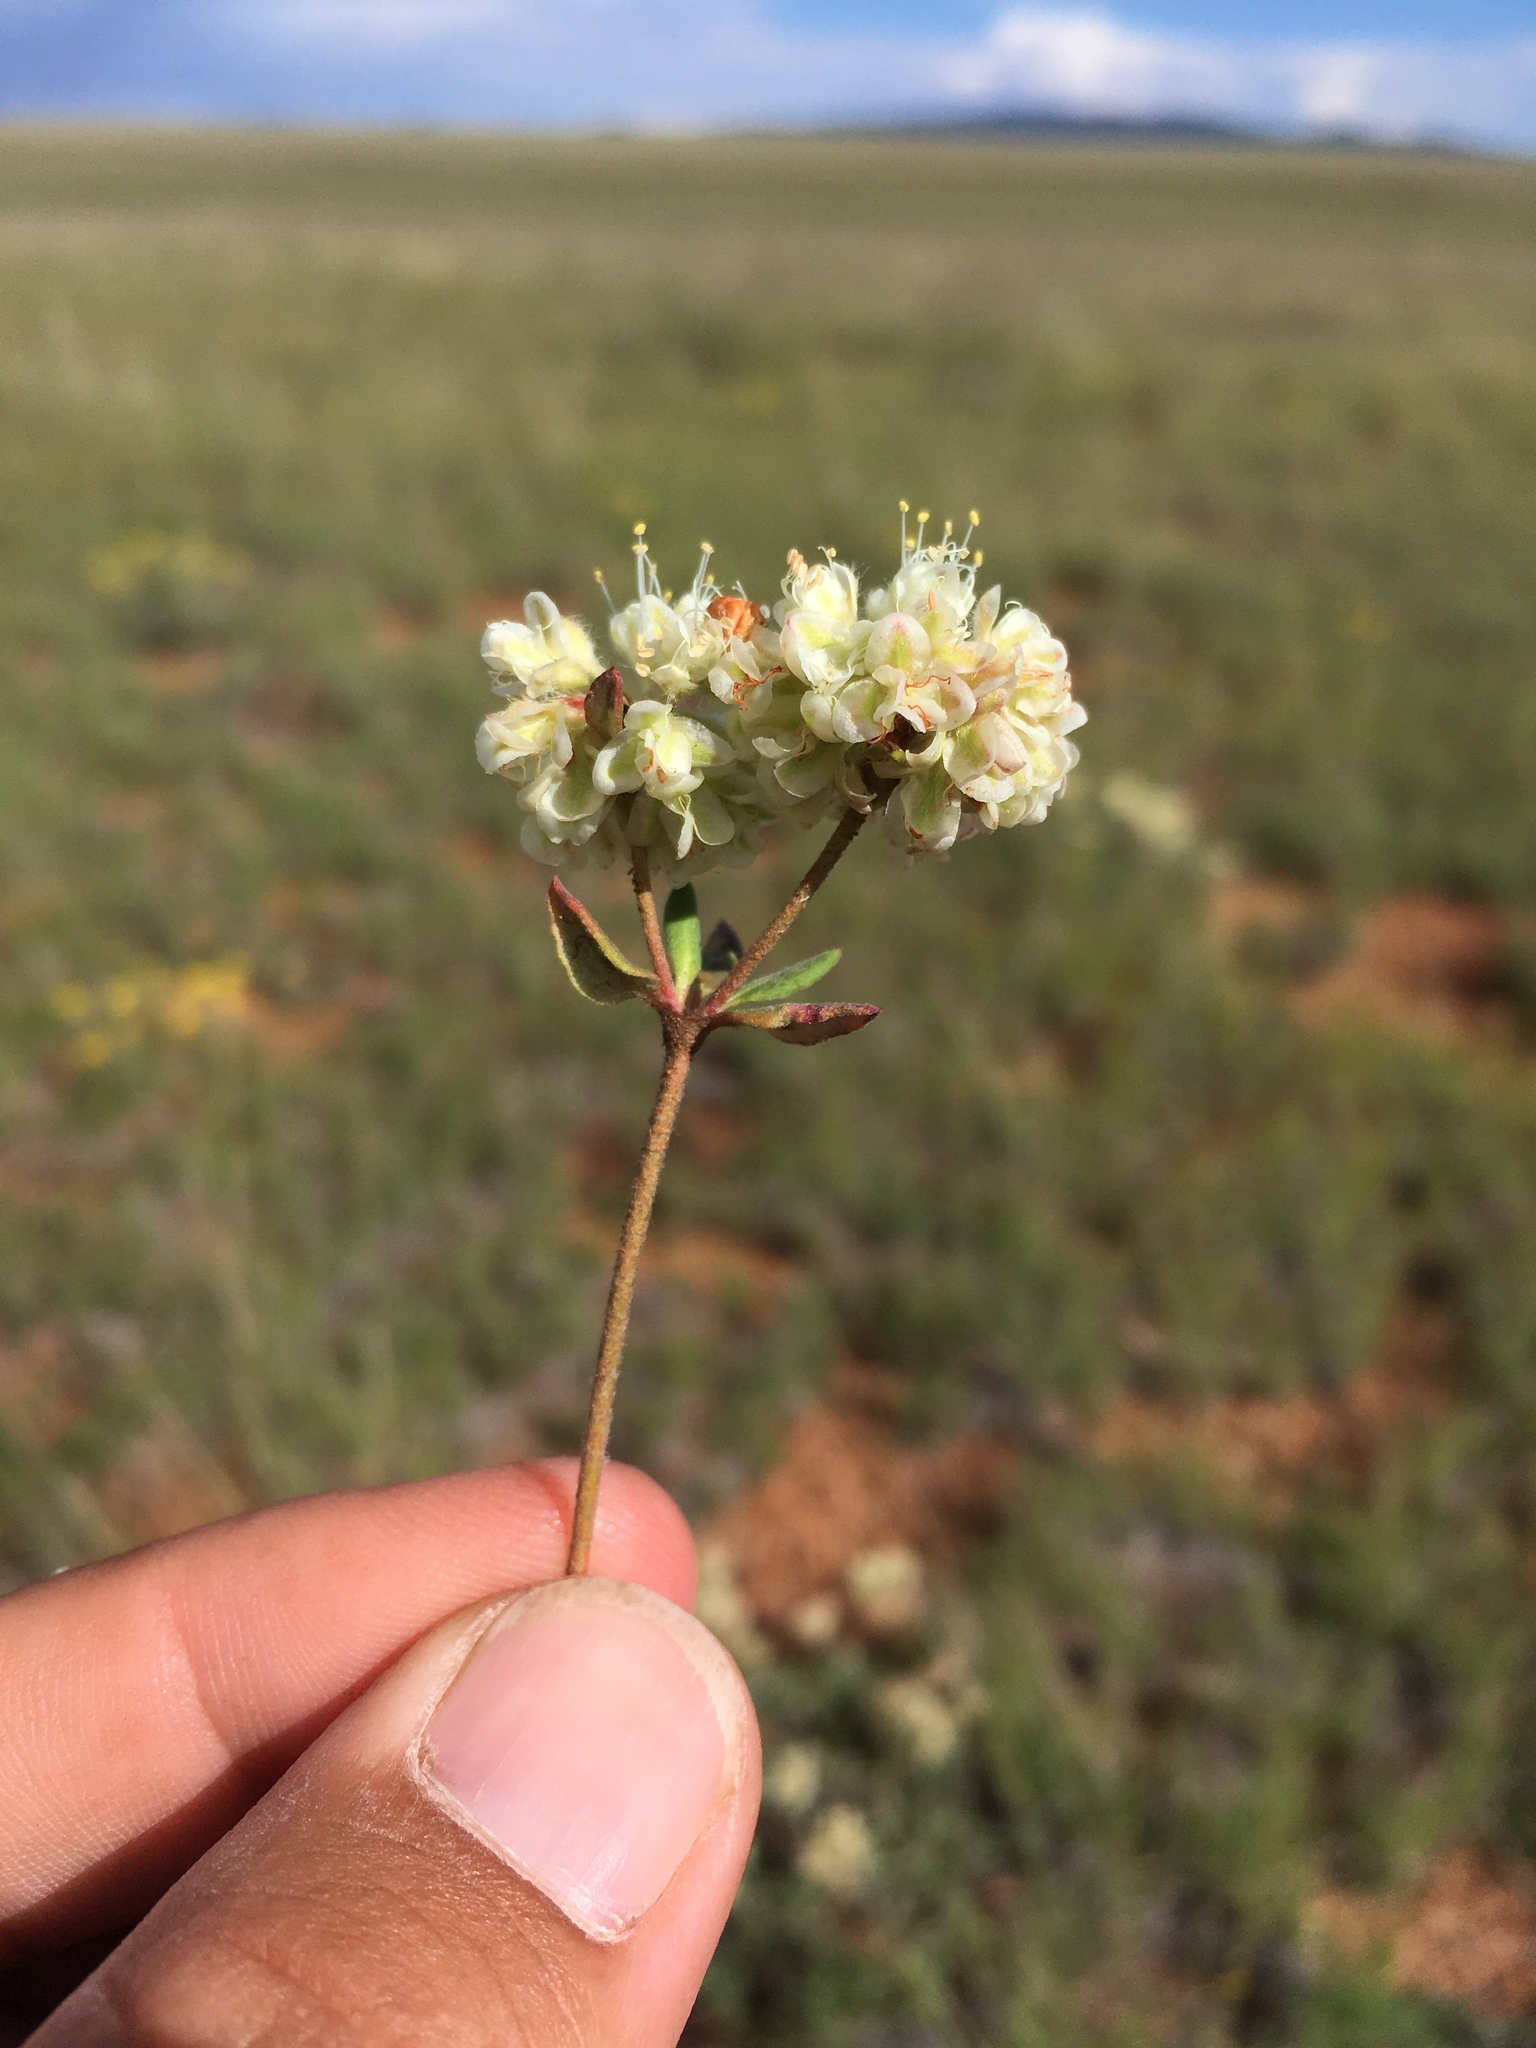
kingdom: Plantae
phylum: Tracheophyta
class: Magnoliopsida
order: Caryophyllales
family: Polygonaceae
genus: Eriogonum
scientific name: Eriogonum jamesii
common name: Antelope-sage
